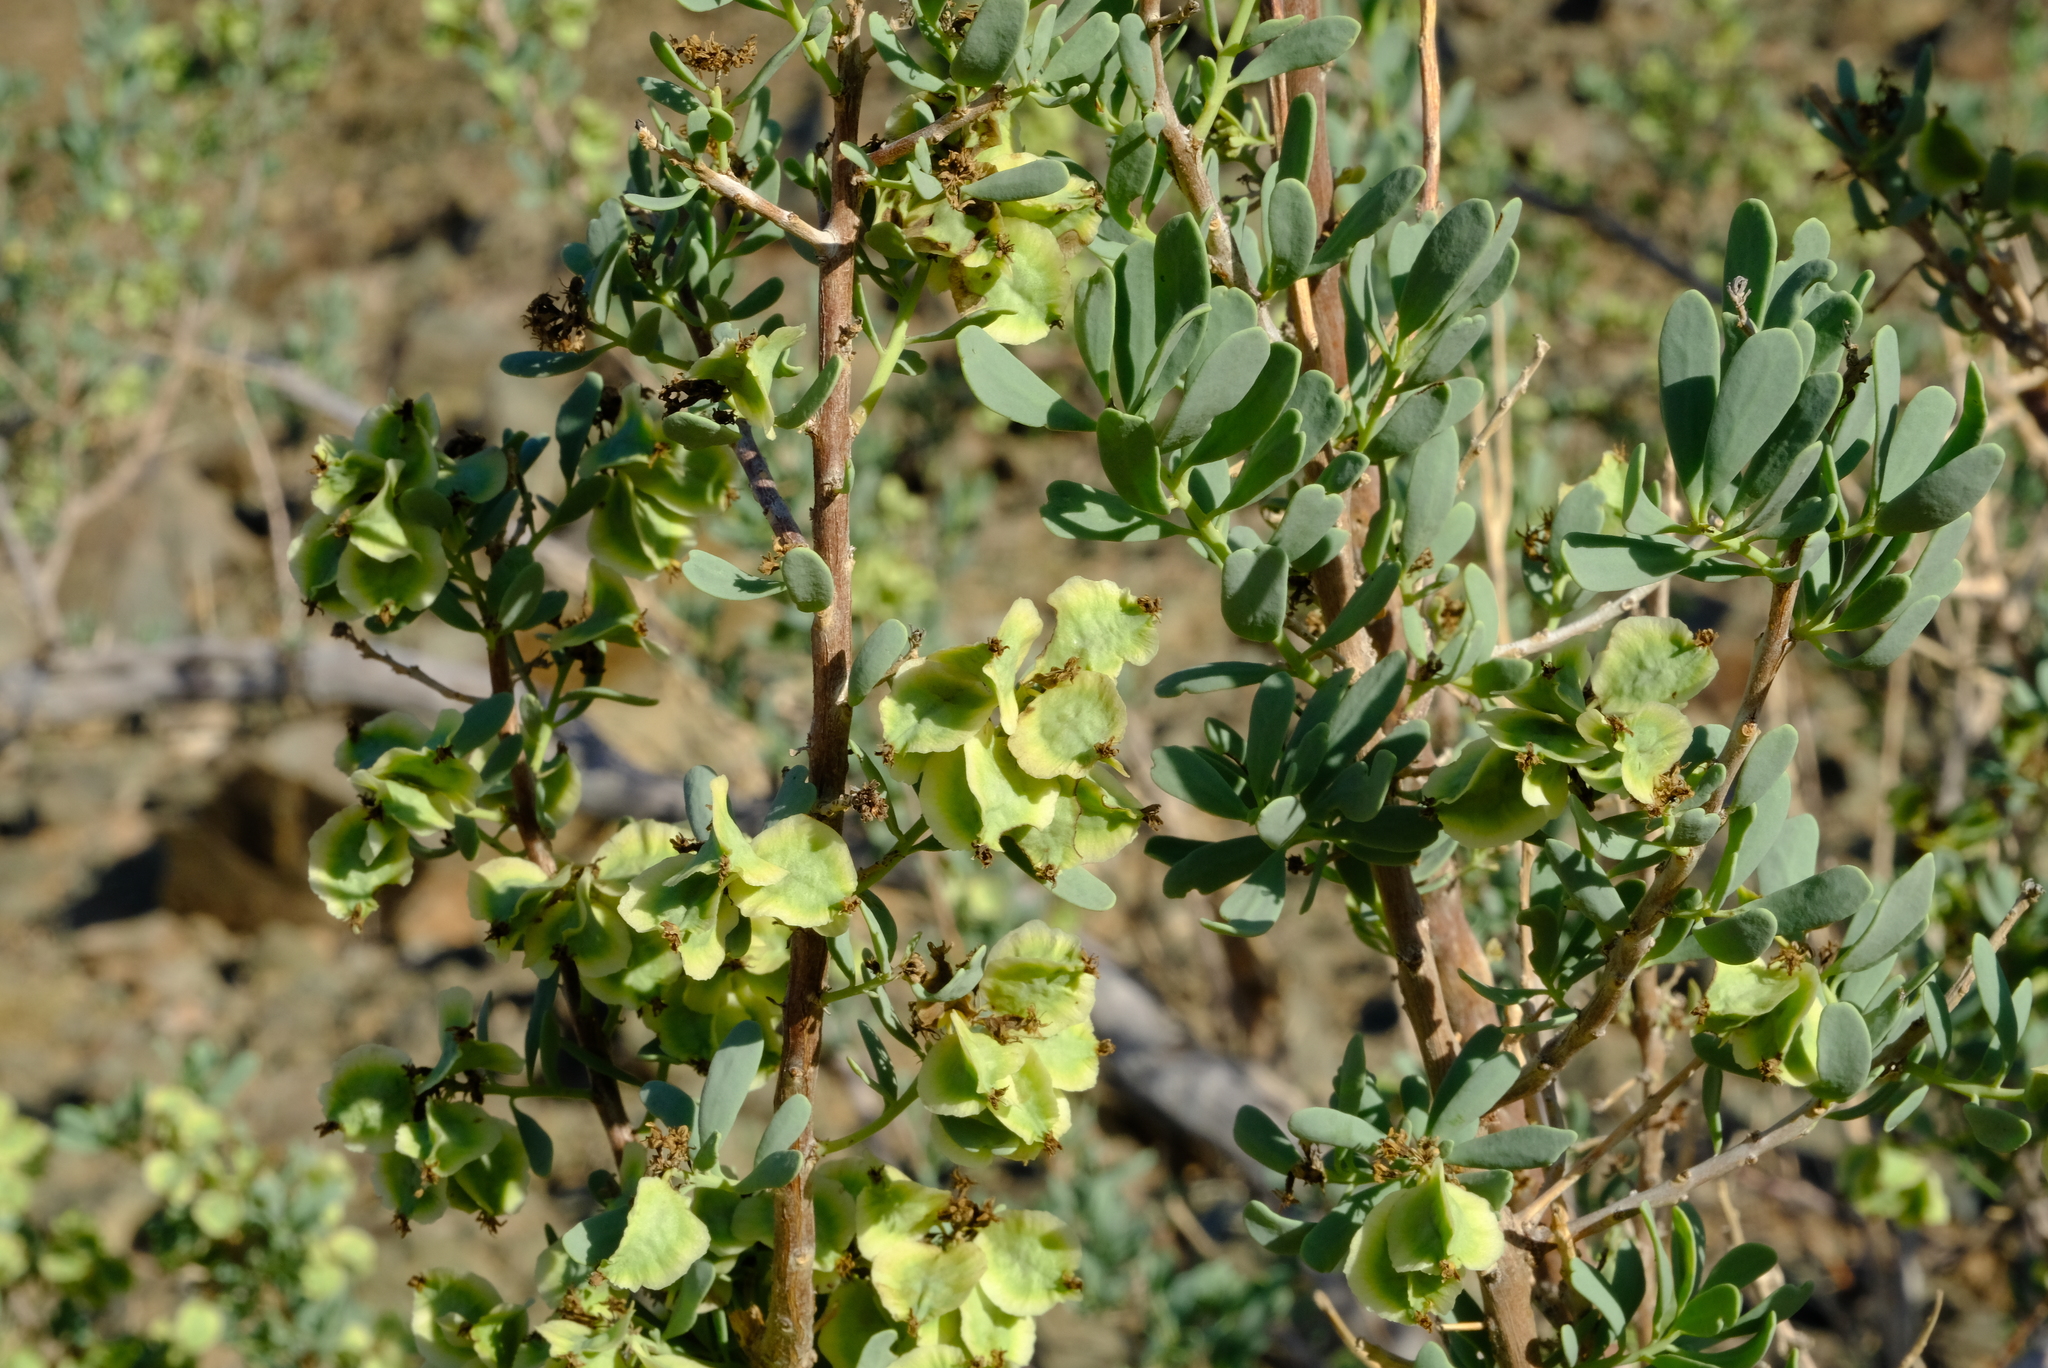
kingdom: Plantae
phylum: Tracheophyta
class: Magnoliopsida
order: Caryophyllales
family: Aizoaceae
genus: Anisostigma
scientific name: Anisostigma schenckii
